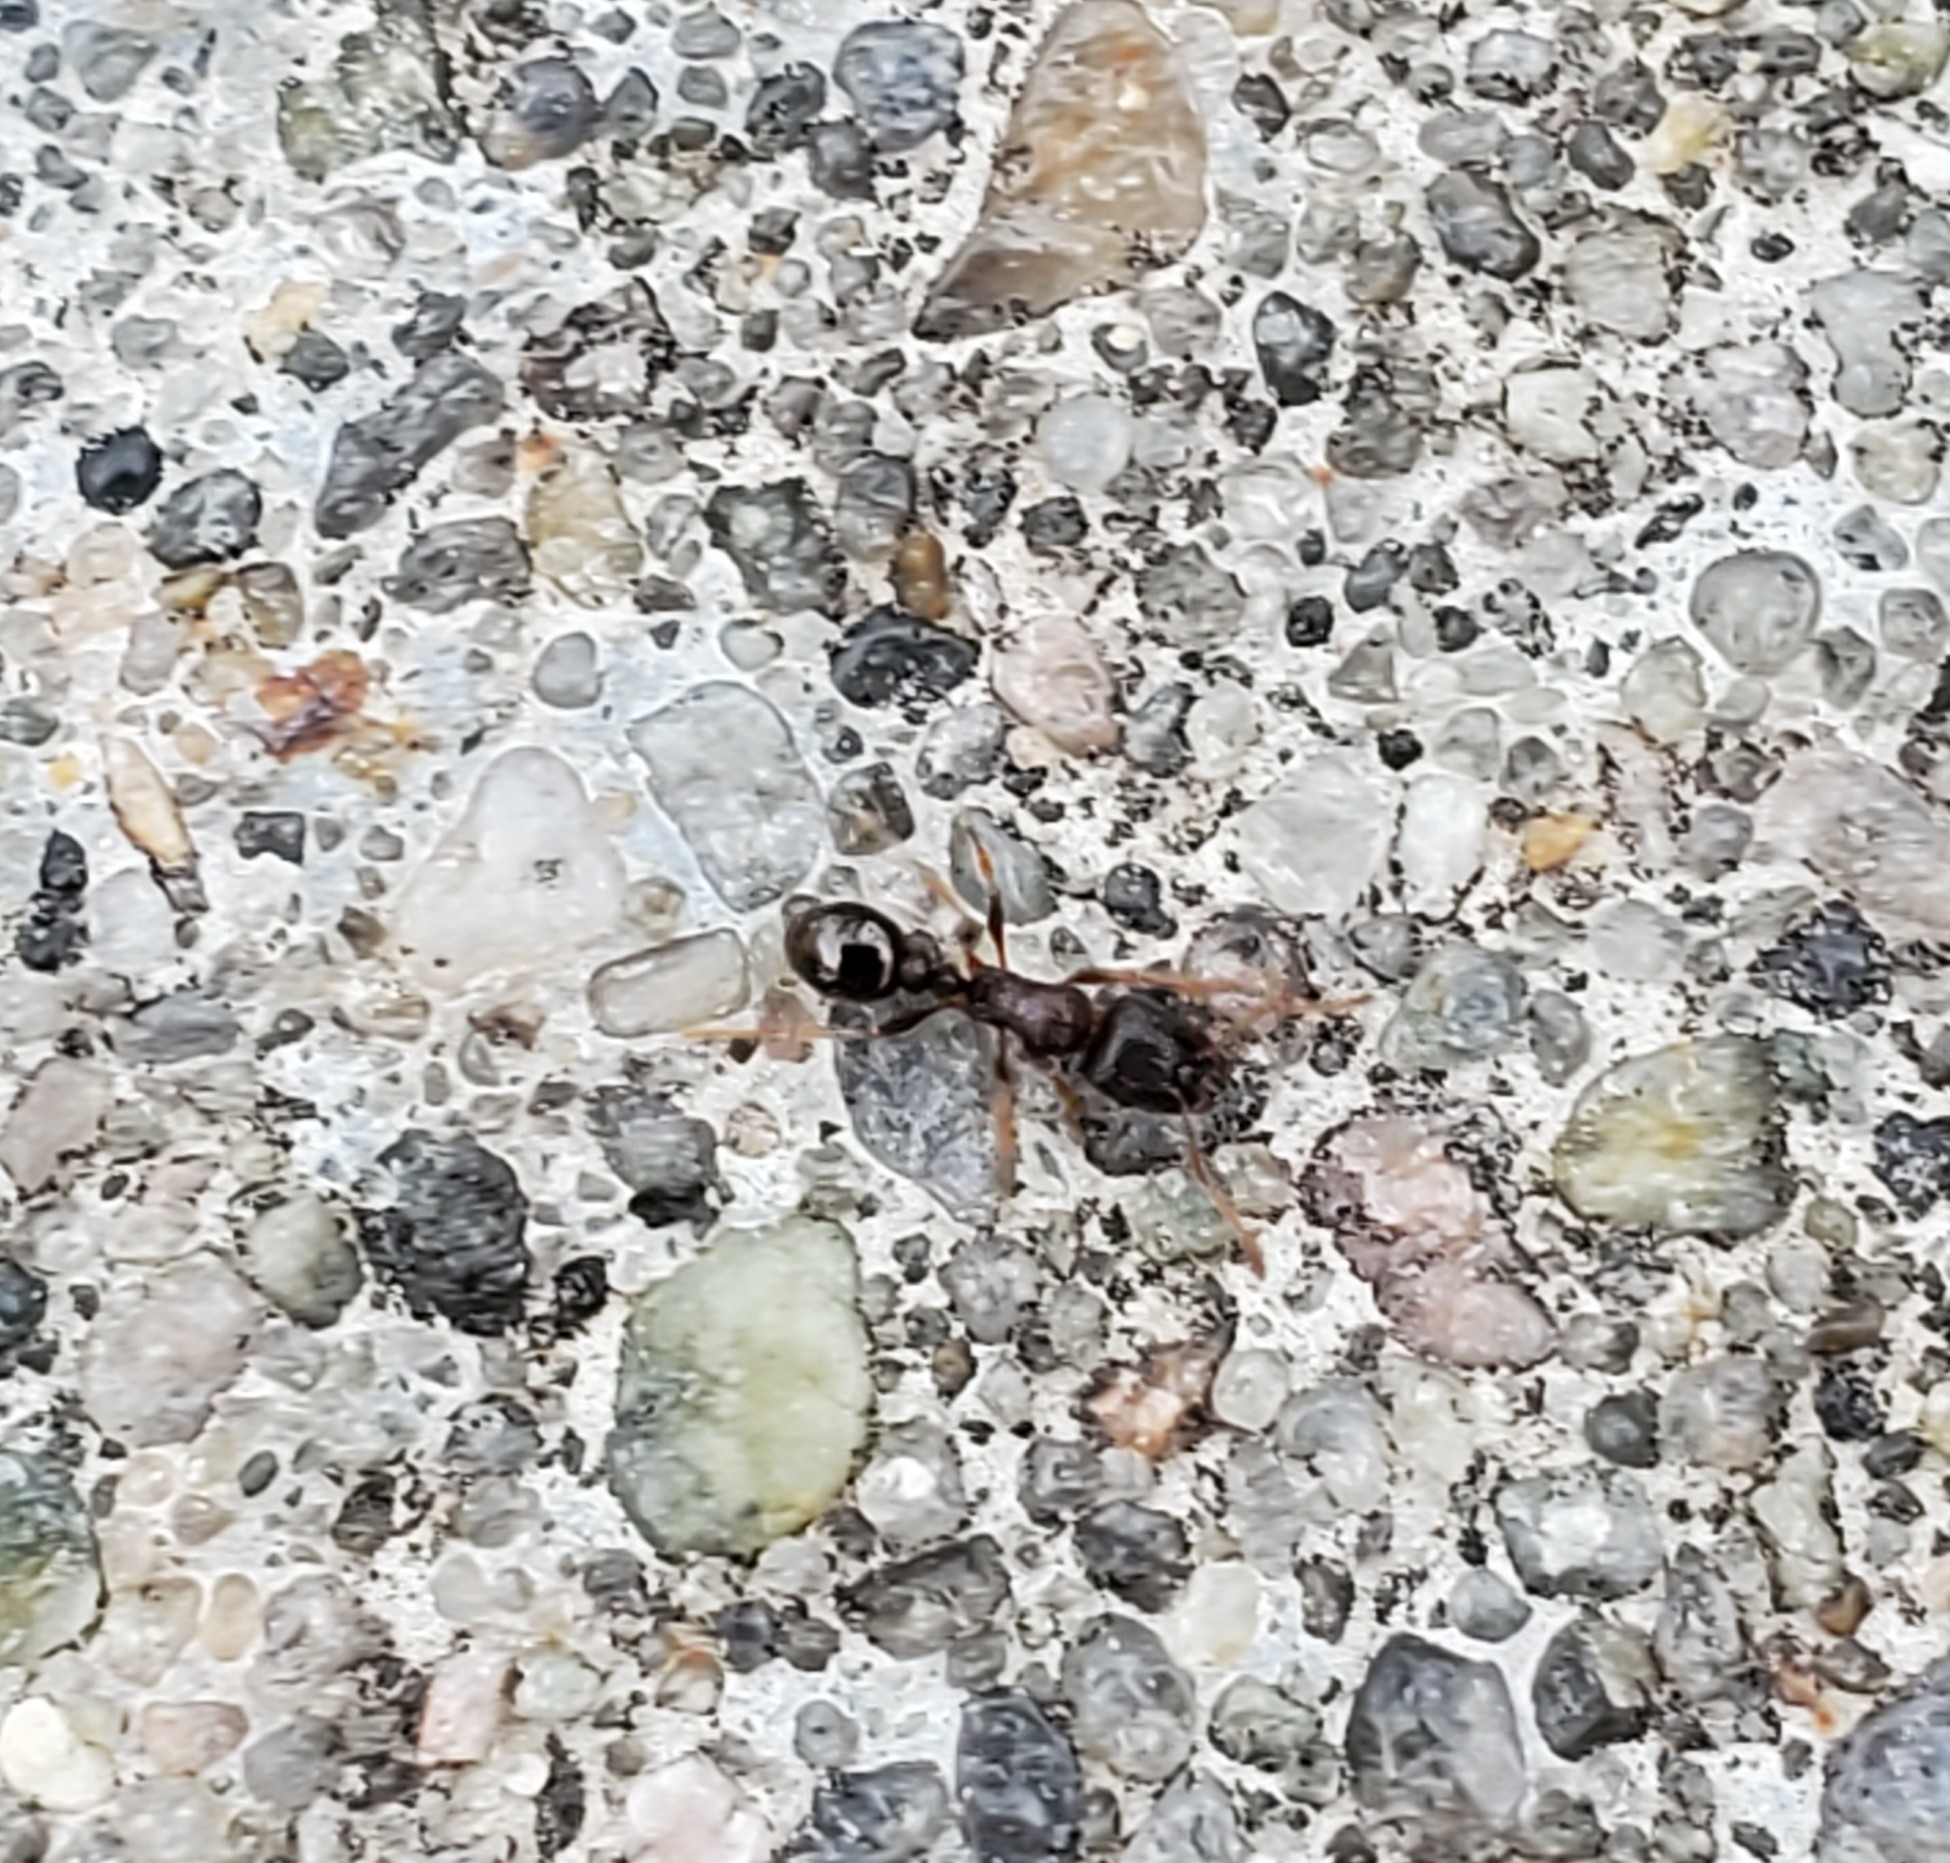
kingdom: Animalia
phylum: Arthropoda
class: Insecta
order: Hymenoptera
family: Formicidae
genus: Tetramorium
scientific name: Tetramorium immigrans
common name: Pavement ant
